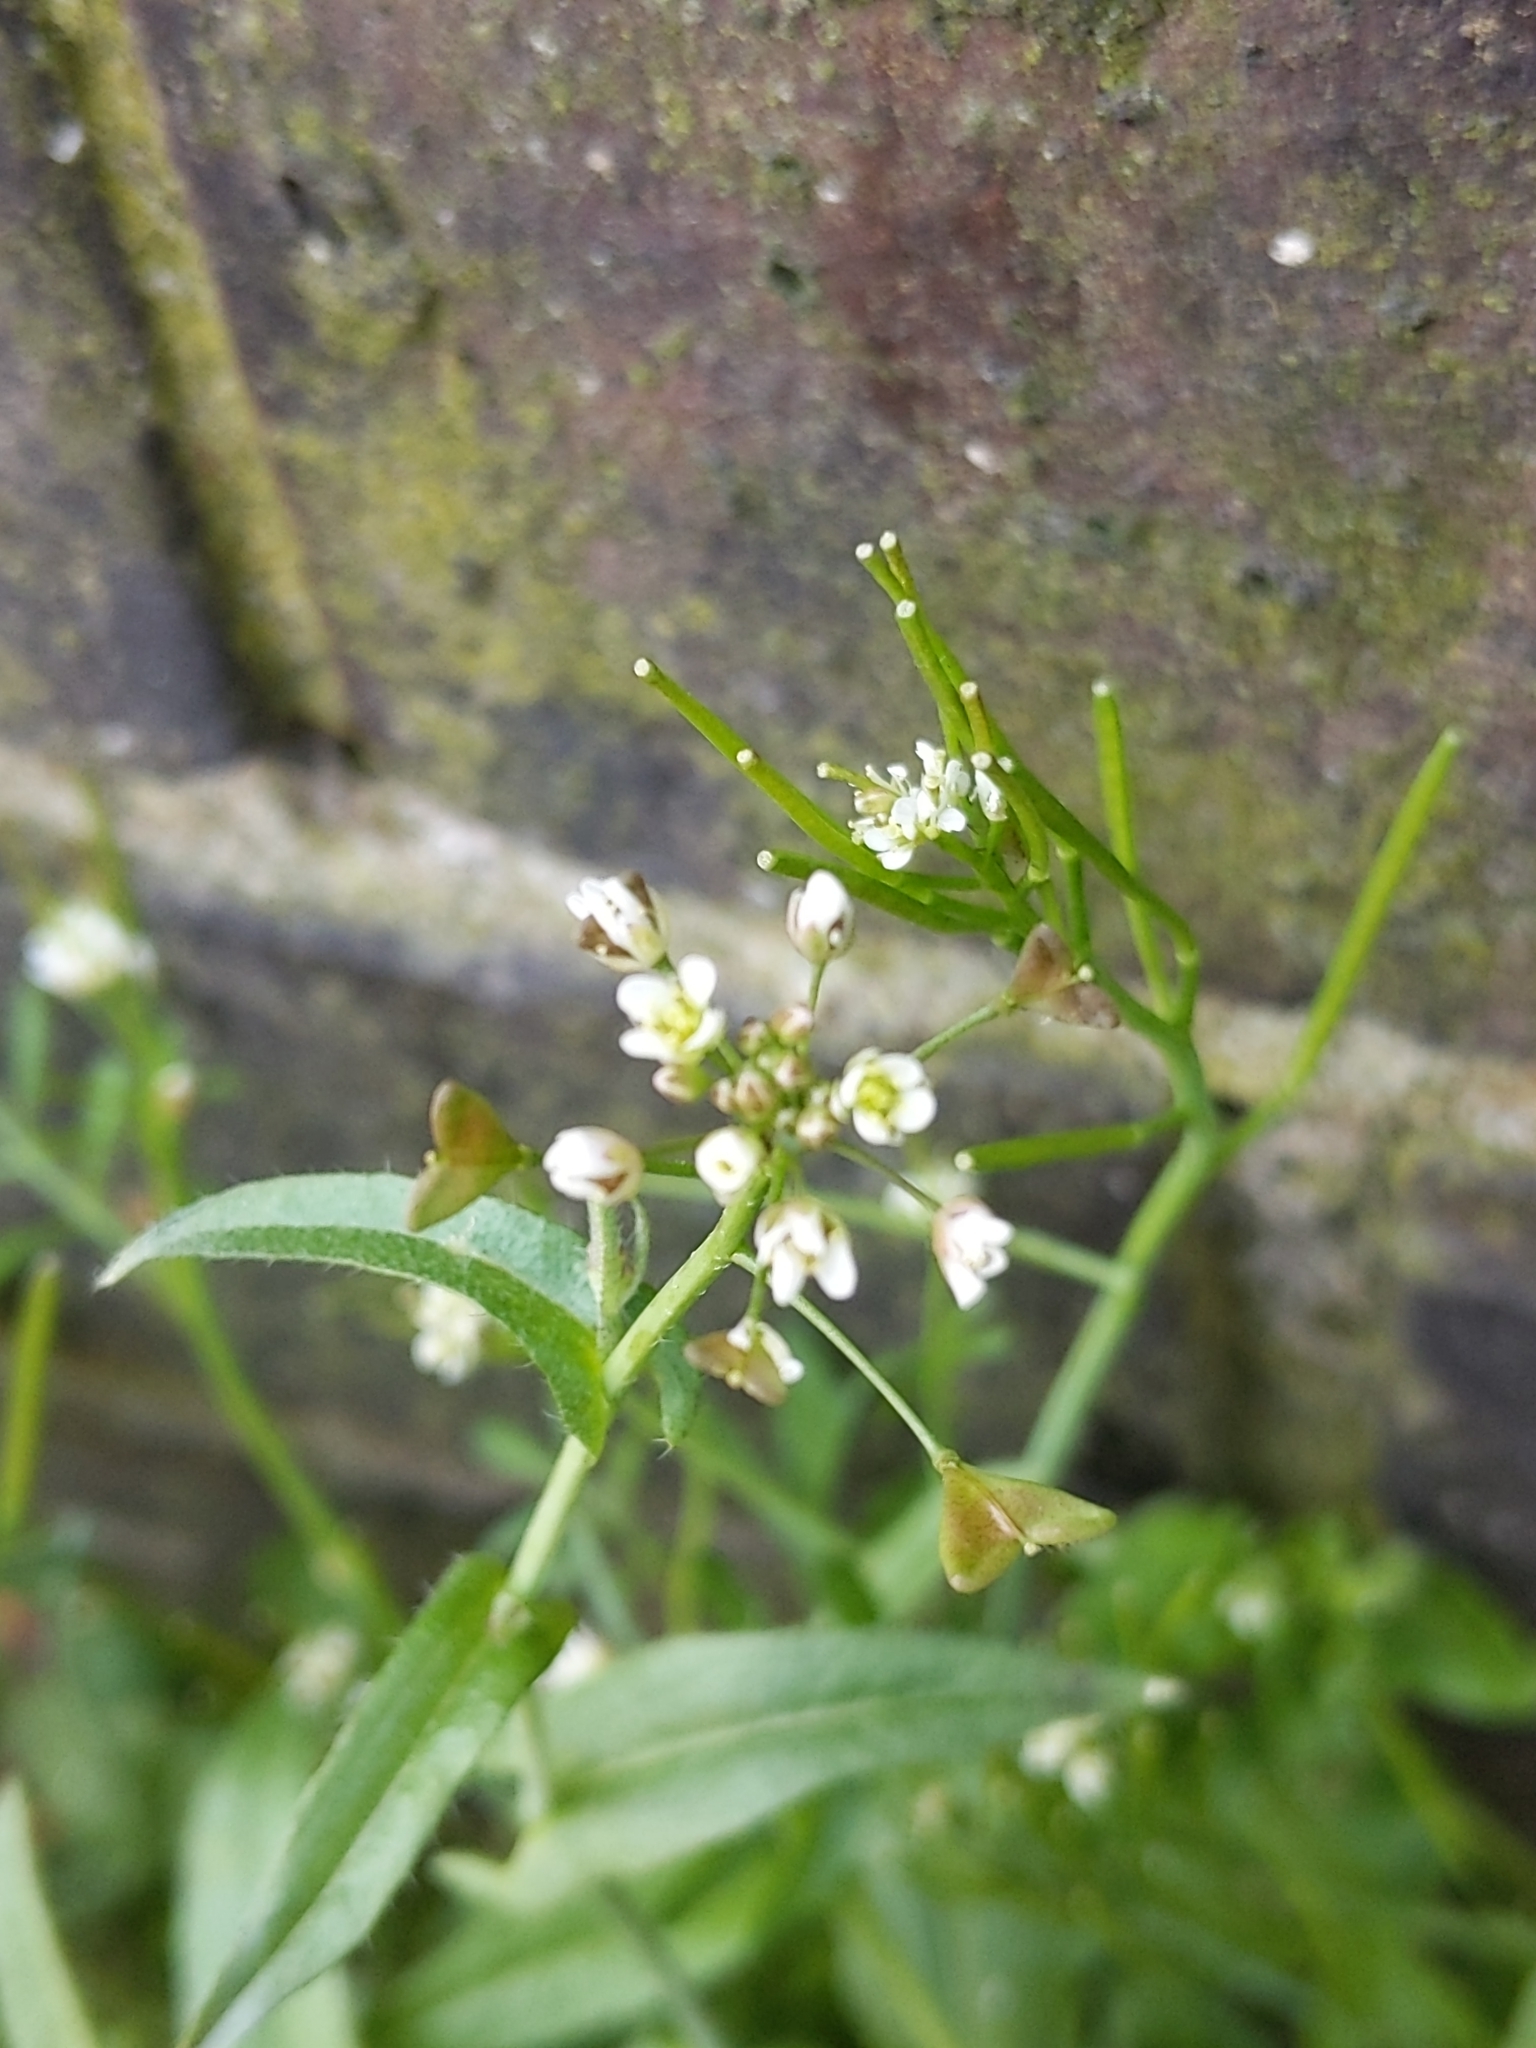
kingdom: Plantae
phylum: Tracheophyta
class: Magnoliopsida
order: Brassicales
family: Brassicaceae
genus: Capsella
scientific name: Capsella bursa-pastoris
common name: Shepherd's purse
